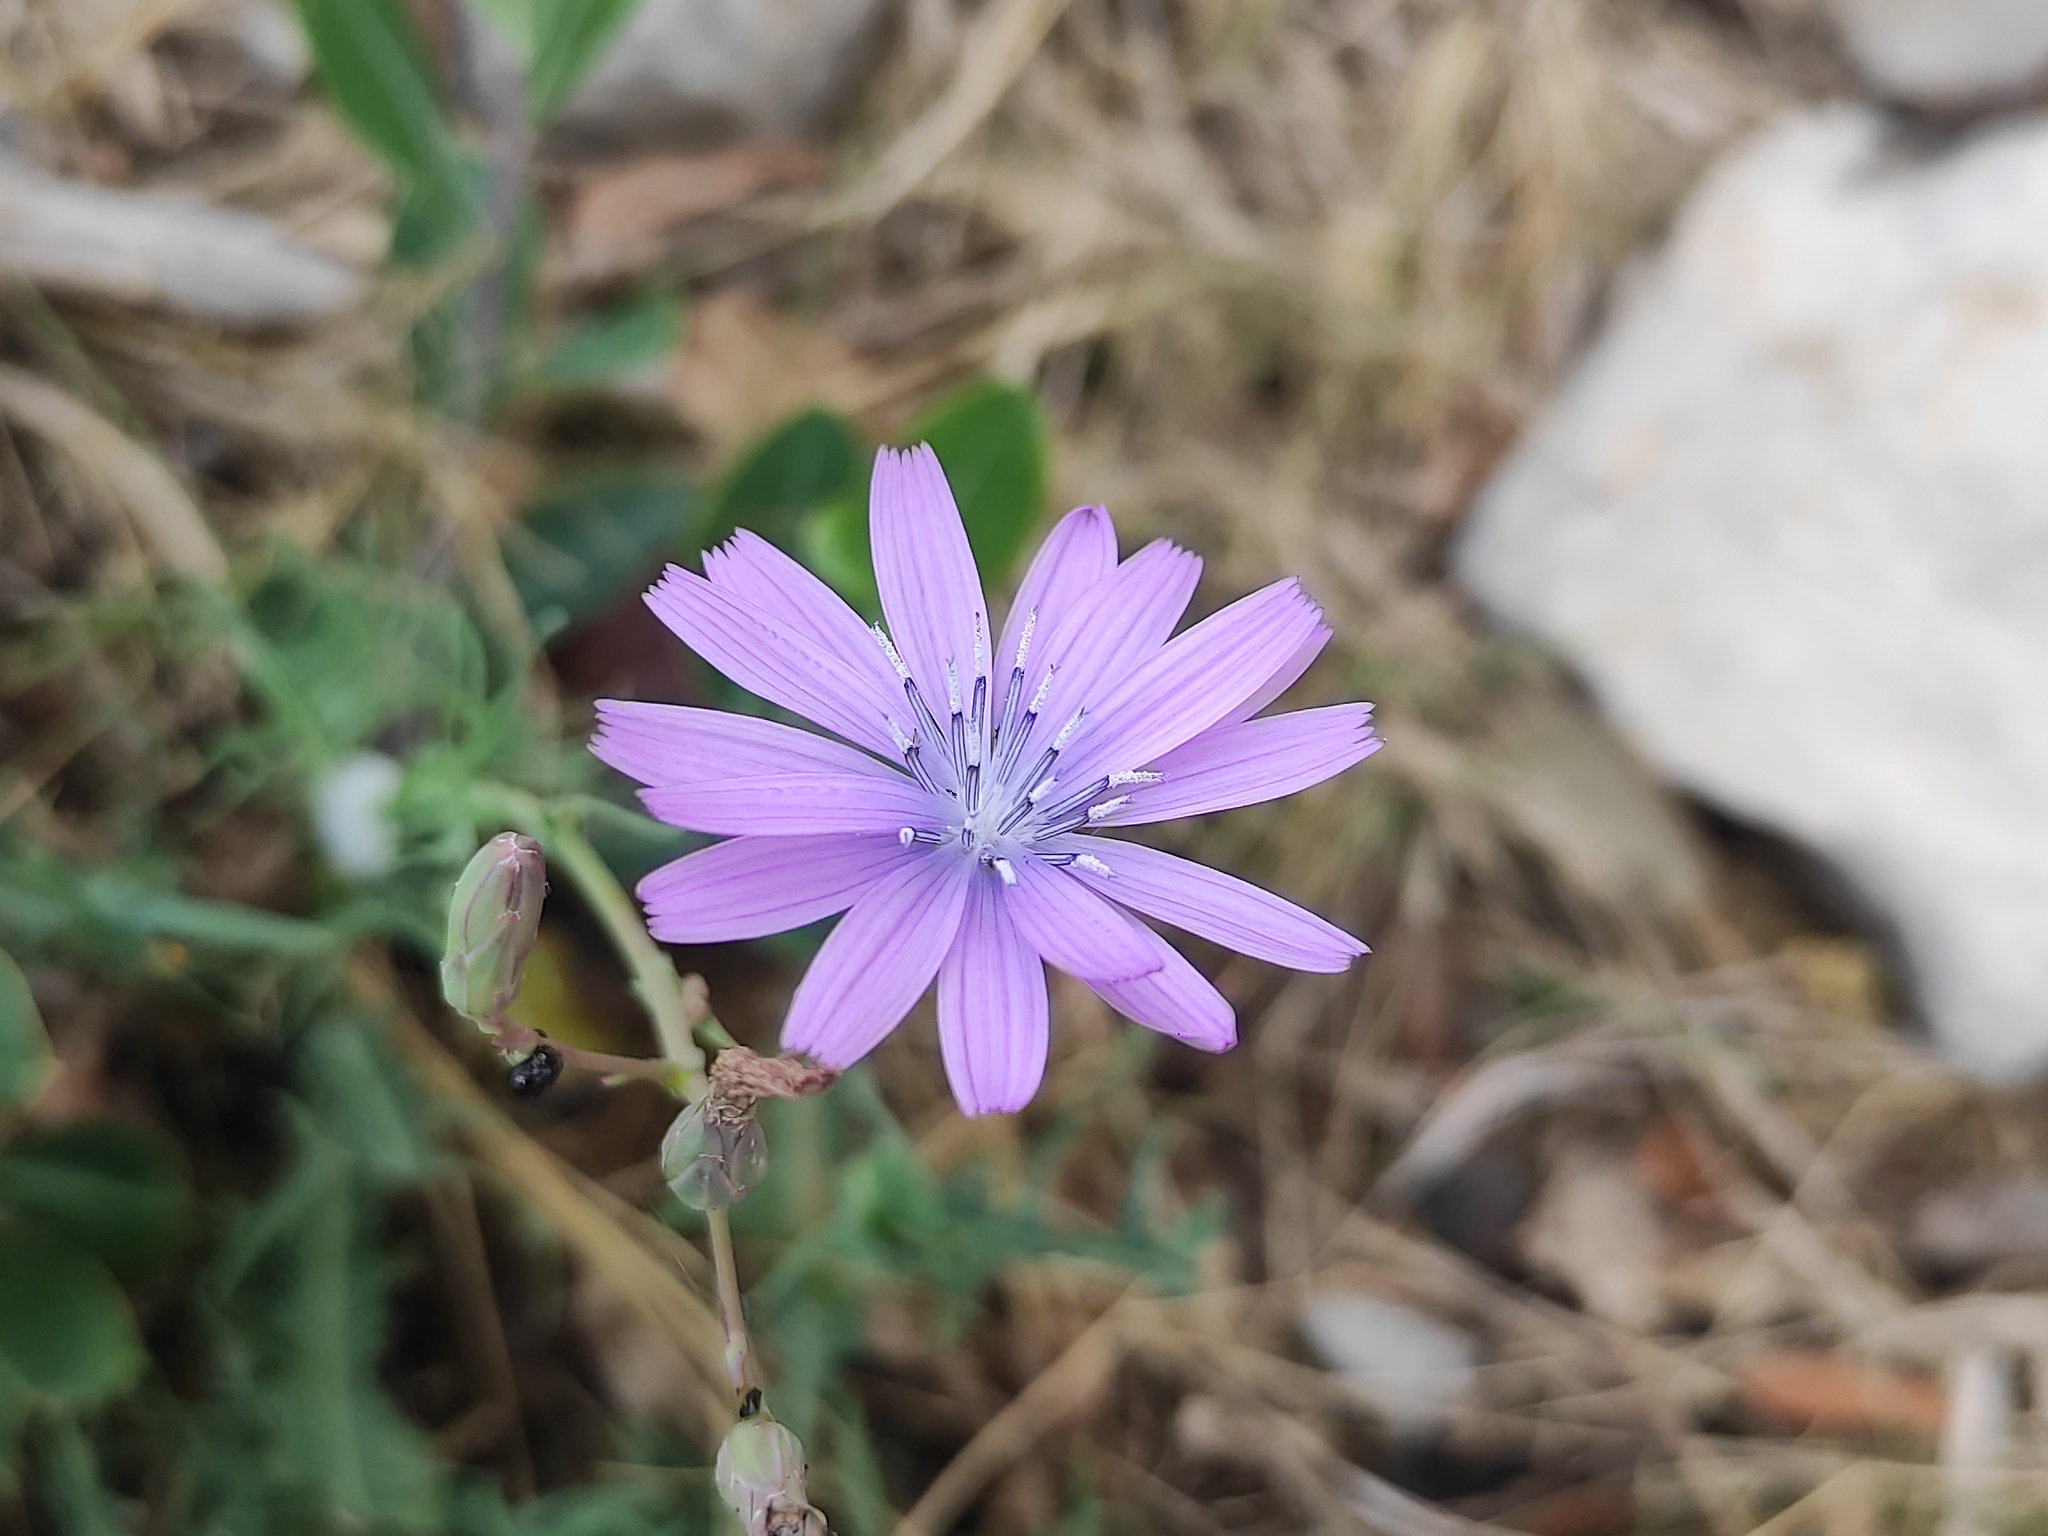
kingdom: Plantae
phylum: Tracheophyta
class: Magnoliopsida
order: Asterales
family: Asteraceae
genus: Lactuca
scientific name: Lactuca perennis
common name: Mountain lettuce
